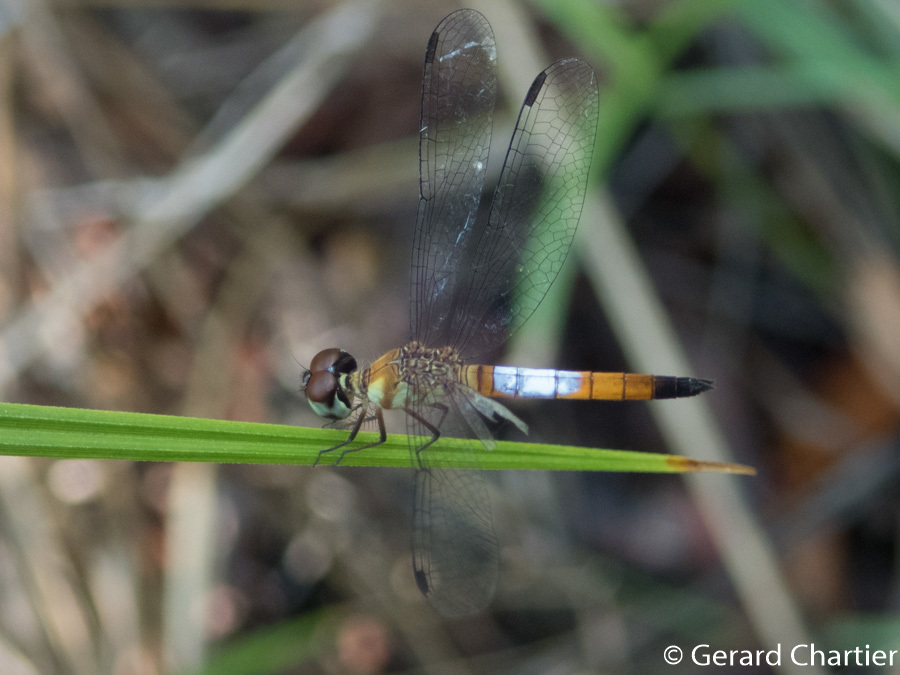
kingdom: Animalia
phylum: Arthropoda
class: Insecta
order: Odonata
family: Libellulidae
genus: Brachygonia
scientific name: Brachygonia oculata
